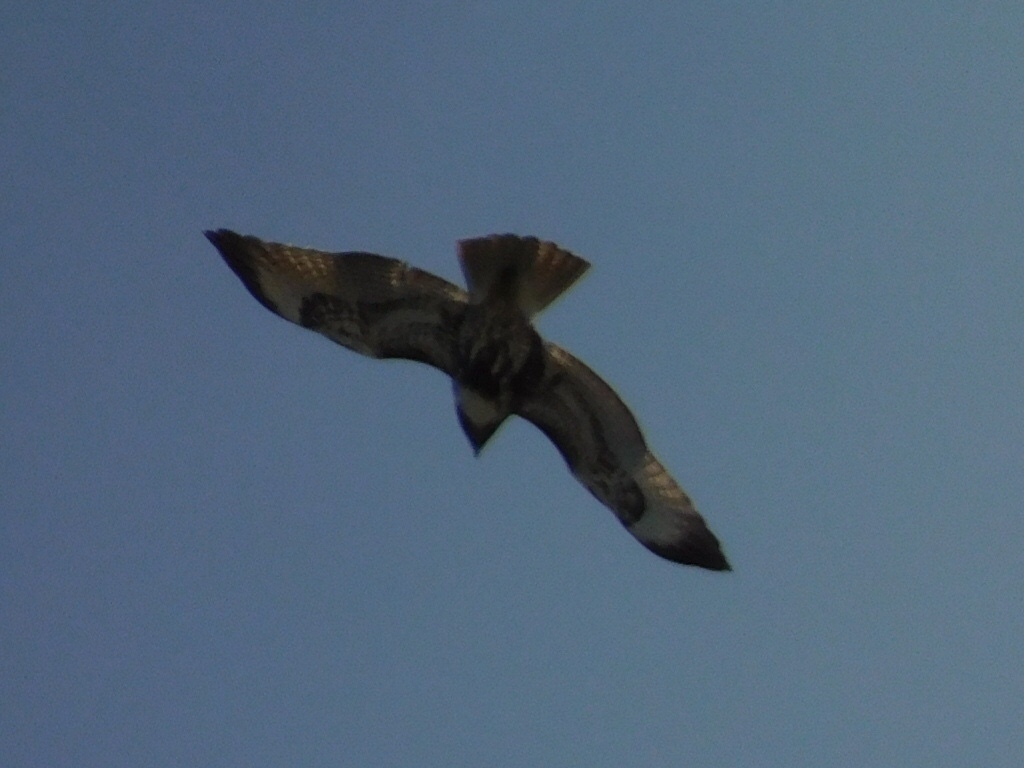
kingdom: Animalia
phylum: Chordata
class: Aves
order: Accipitriformes
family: Accipitridae
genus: Buteo
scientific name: Buteo jamaicensis
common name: Red-tailed hawk
